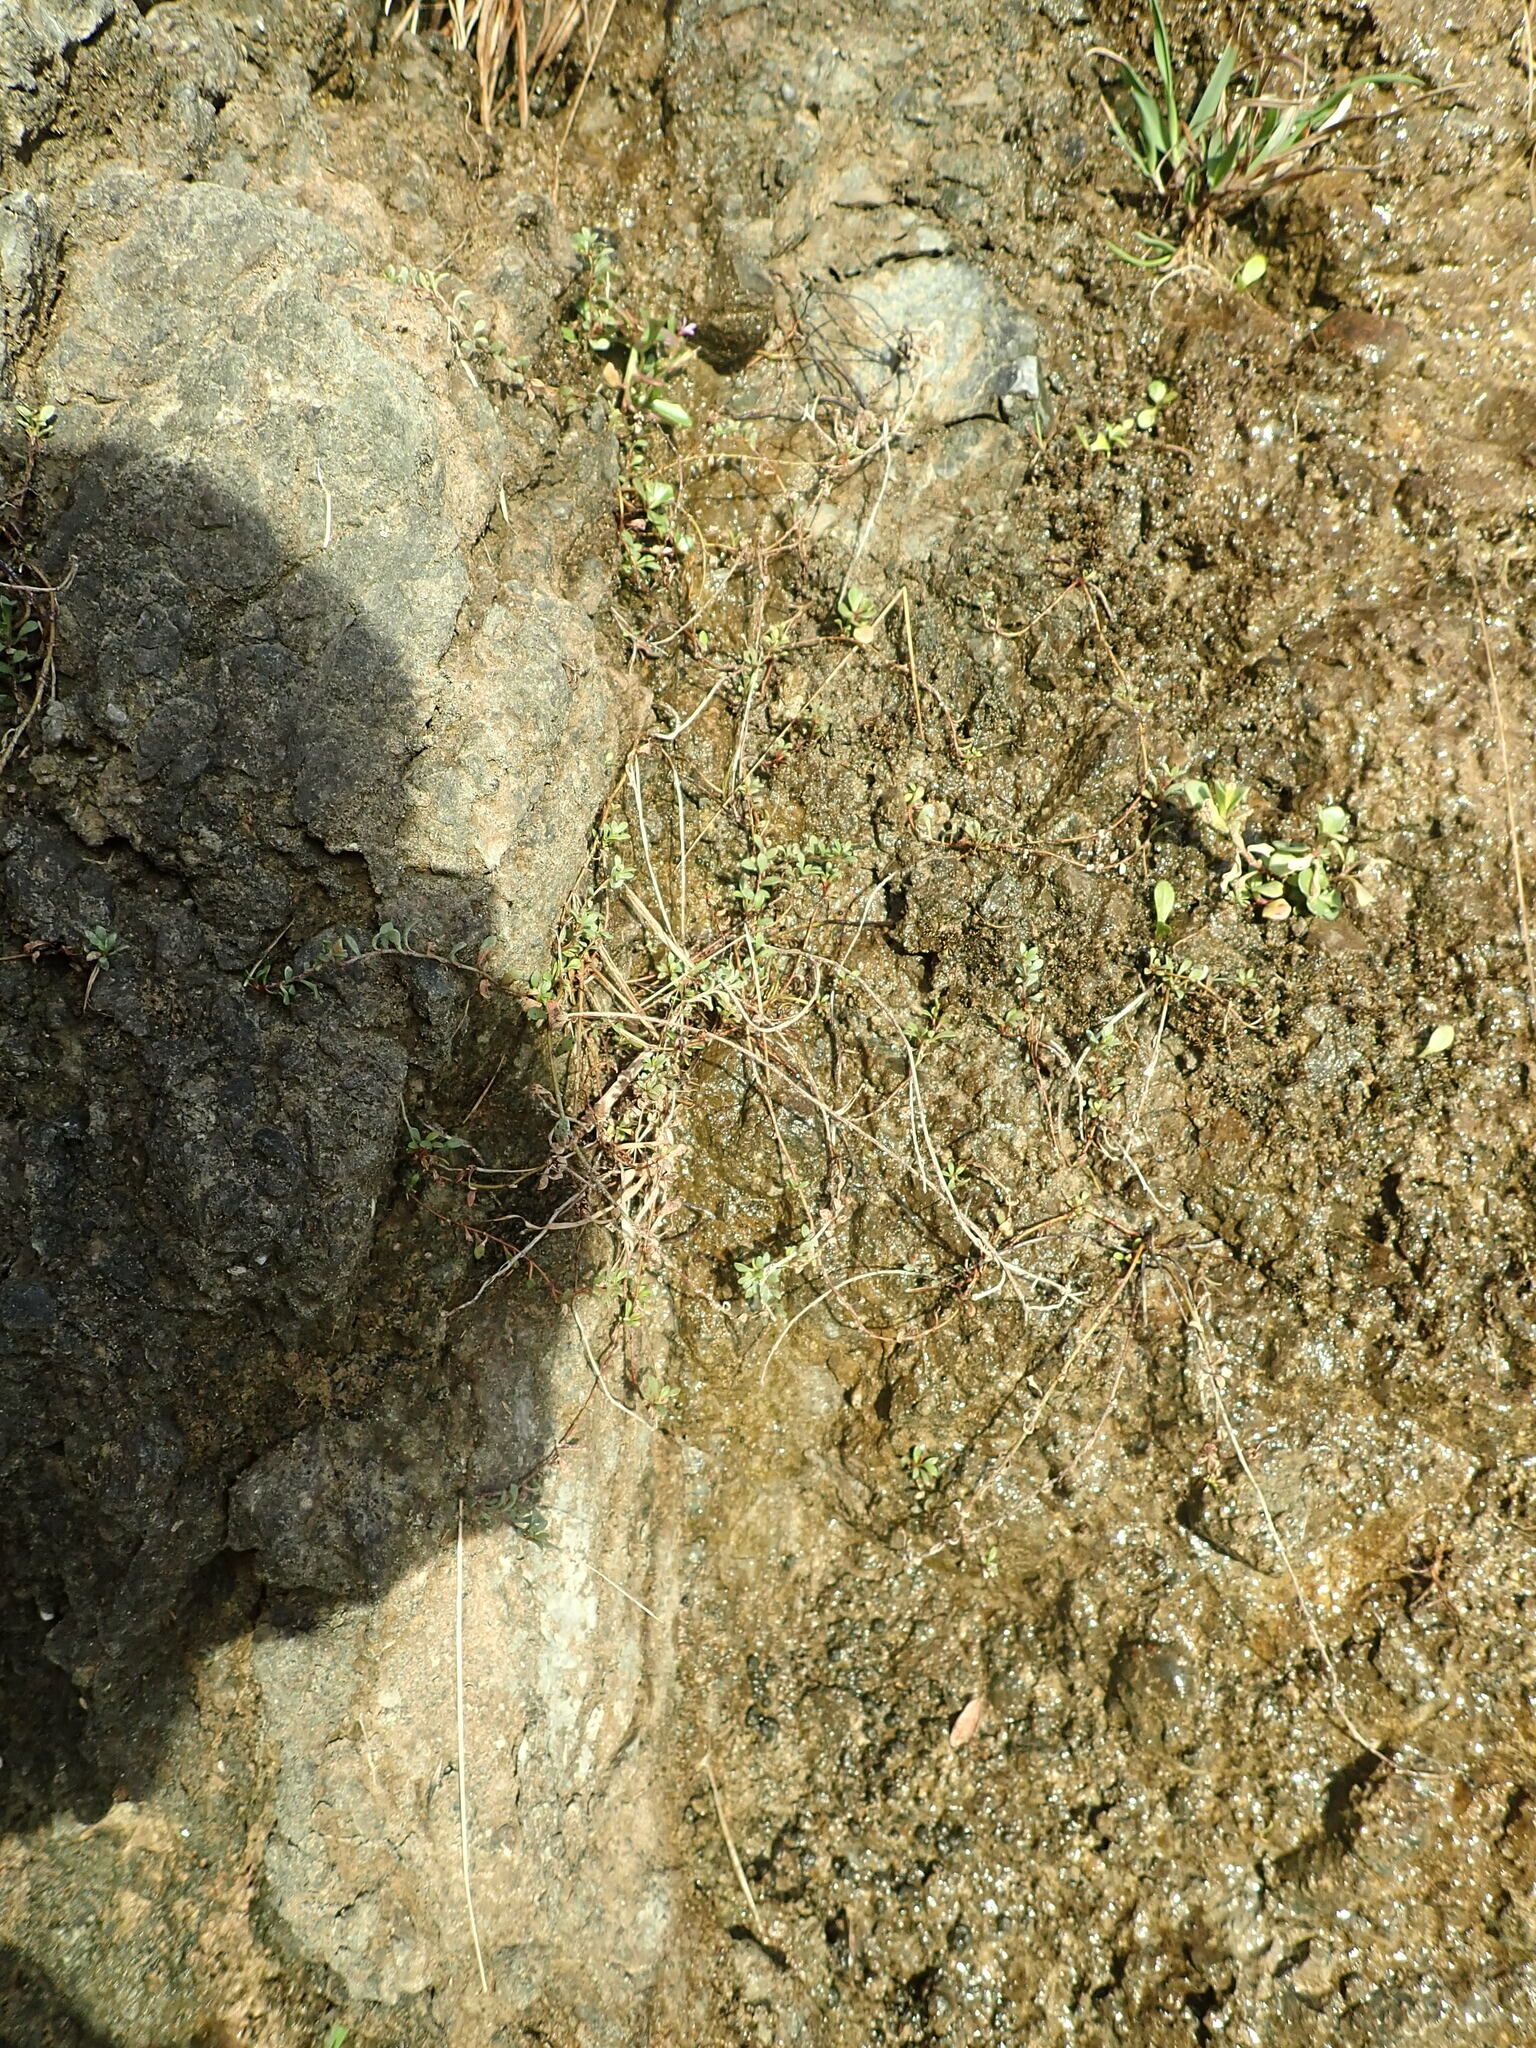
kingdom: Plantae
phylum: Tracheophyta
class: Magnoliopsida
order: Ericales
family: Primulaceae
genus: Samolus
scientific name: Samolus repens
